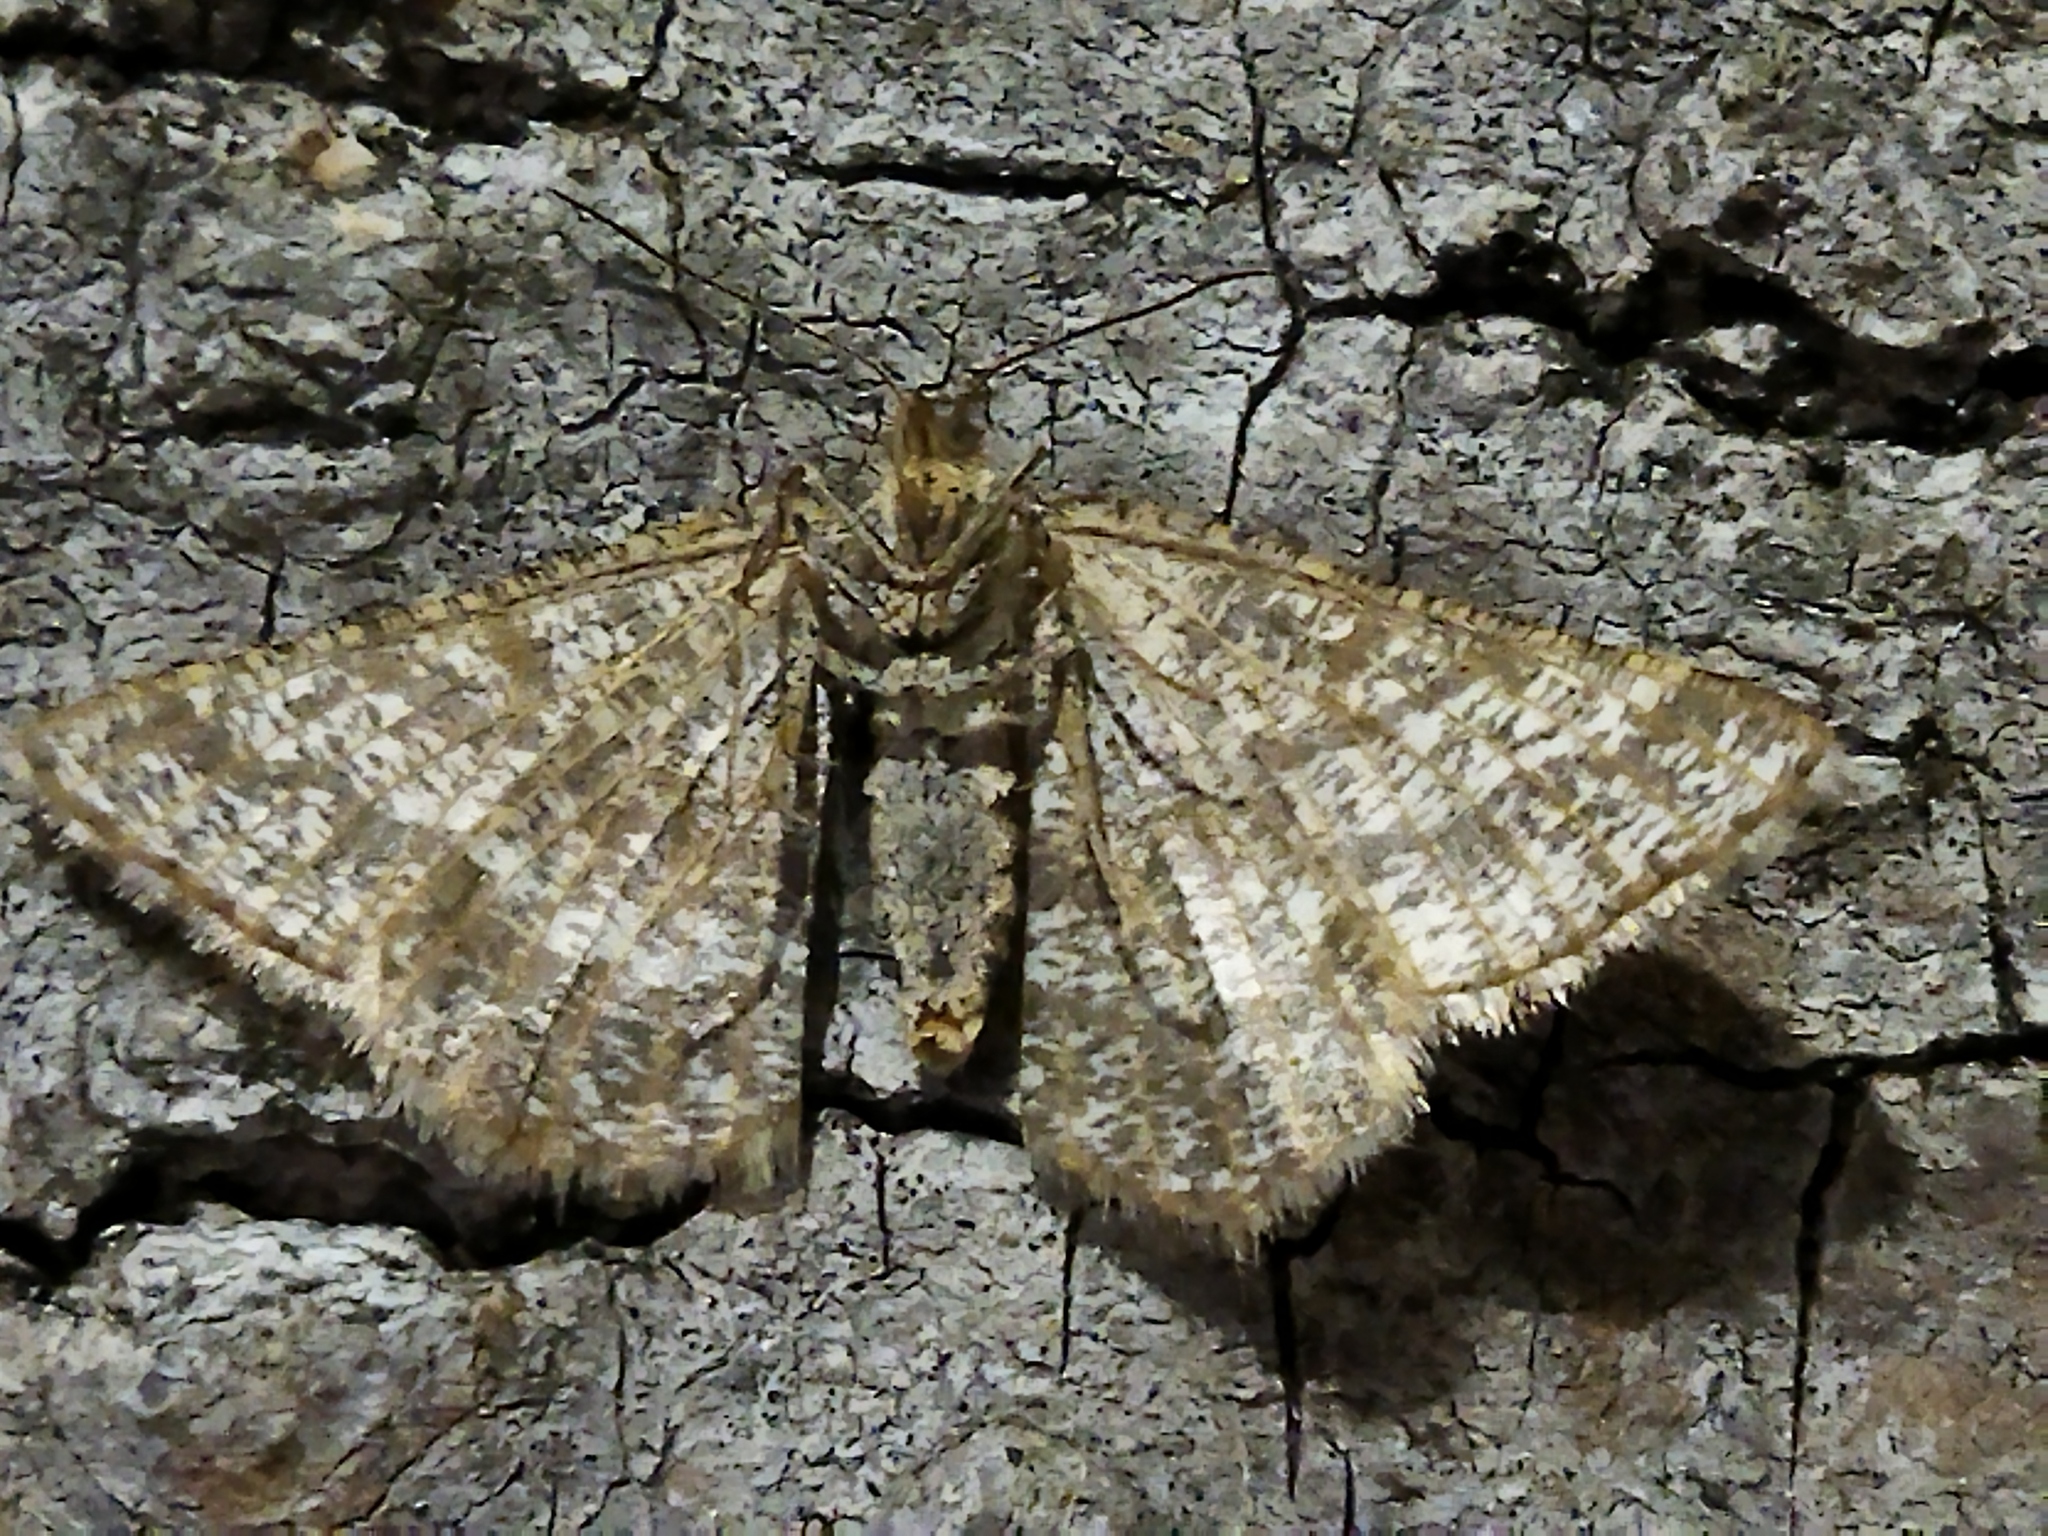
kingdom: Animalia
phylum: Arthropoda
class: Insecta
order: Lepidoptera
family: Geometridae
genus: Tephrina
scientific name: Tephrina murinaria
